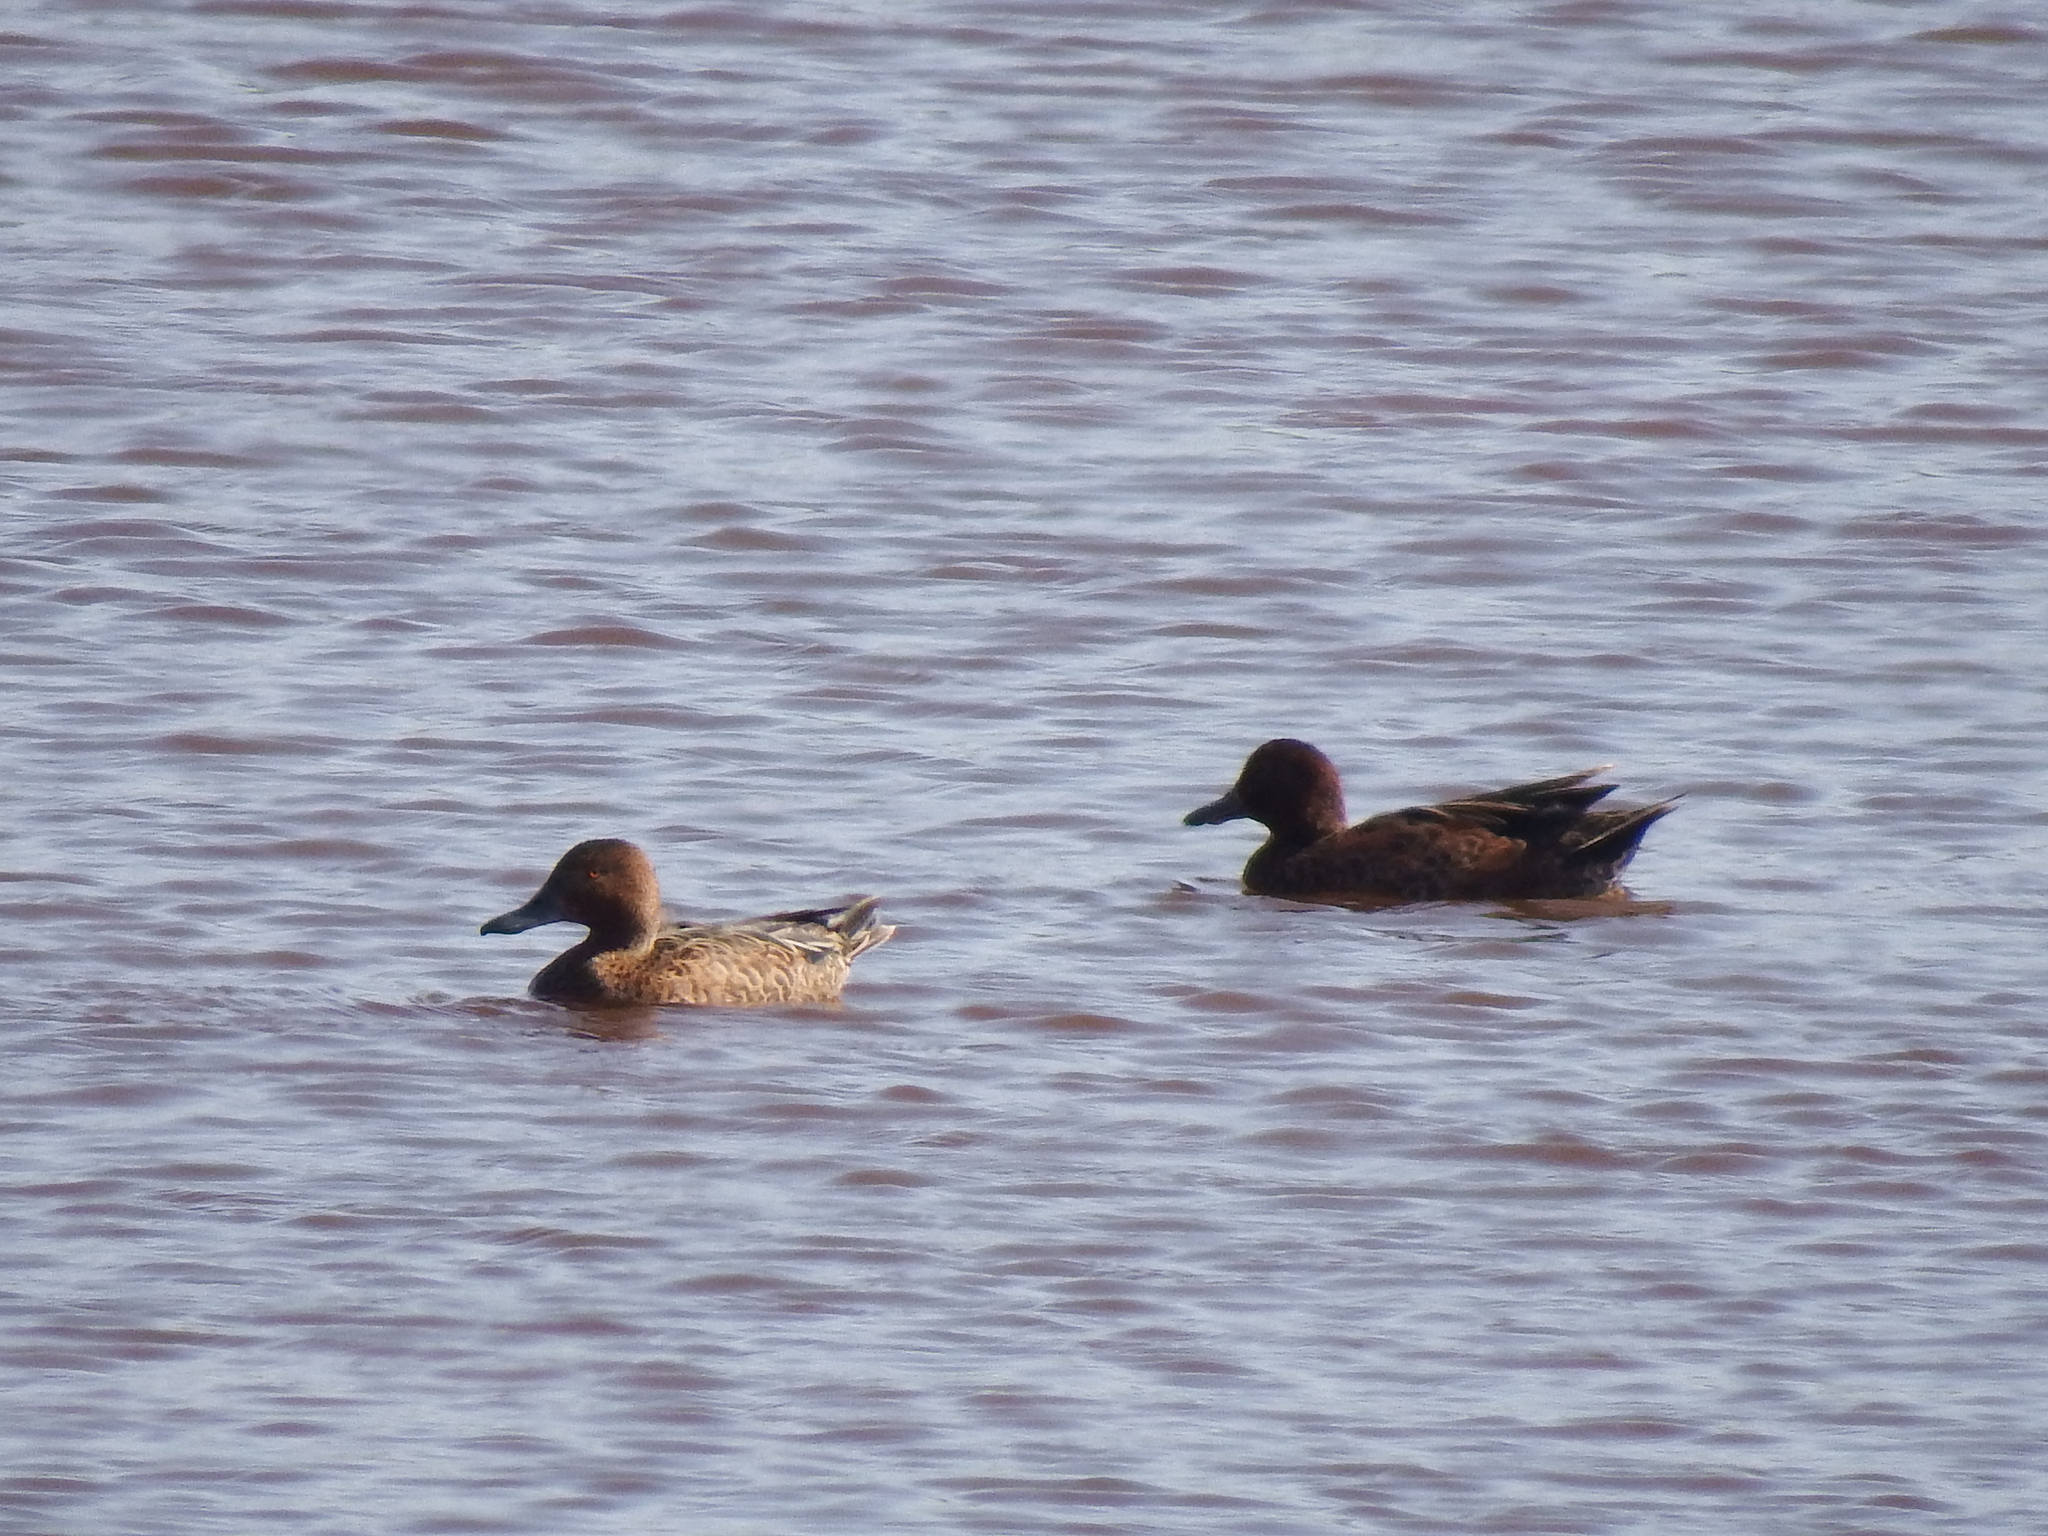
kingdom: Animalia
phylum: Chordata
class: Aves
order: Anseriformes
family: Anatidae
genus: Spatula
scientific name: Spatula cyanoptera
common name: Cinnamon teal
